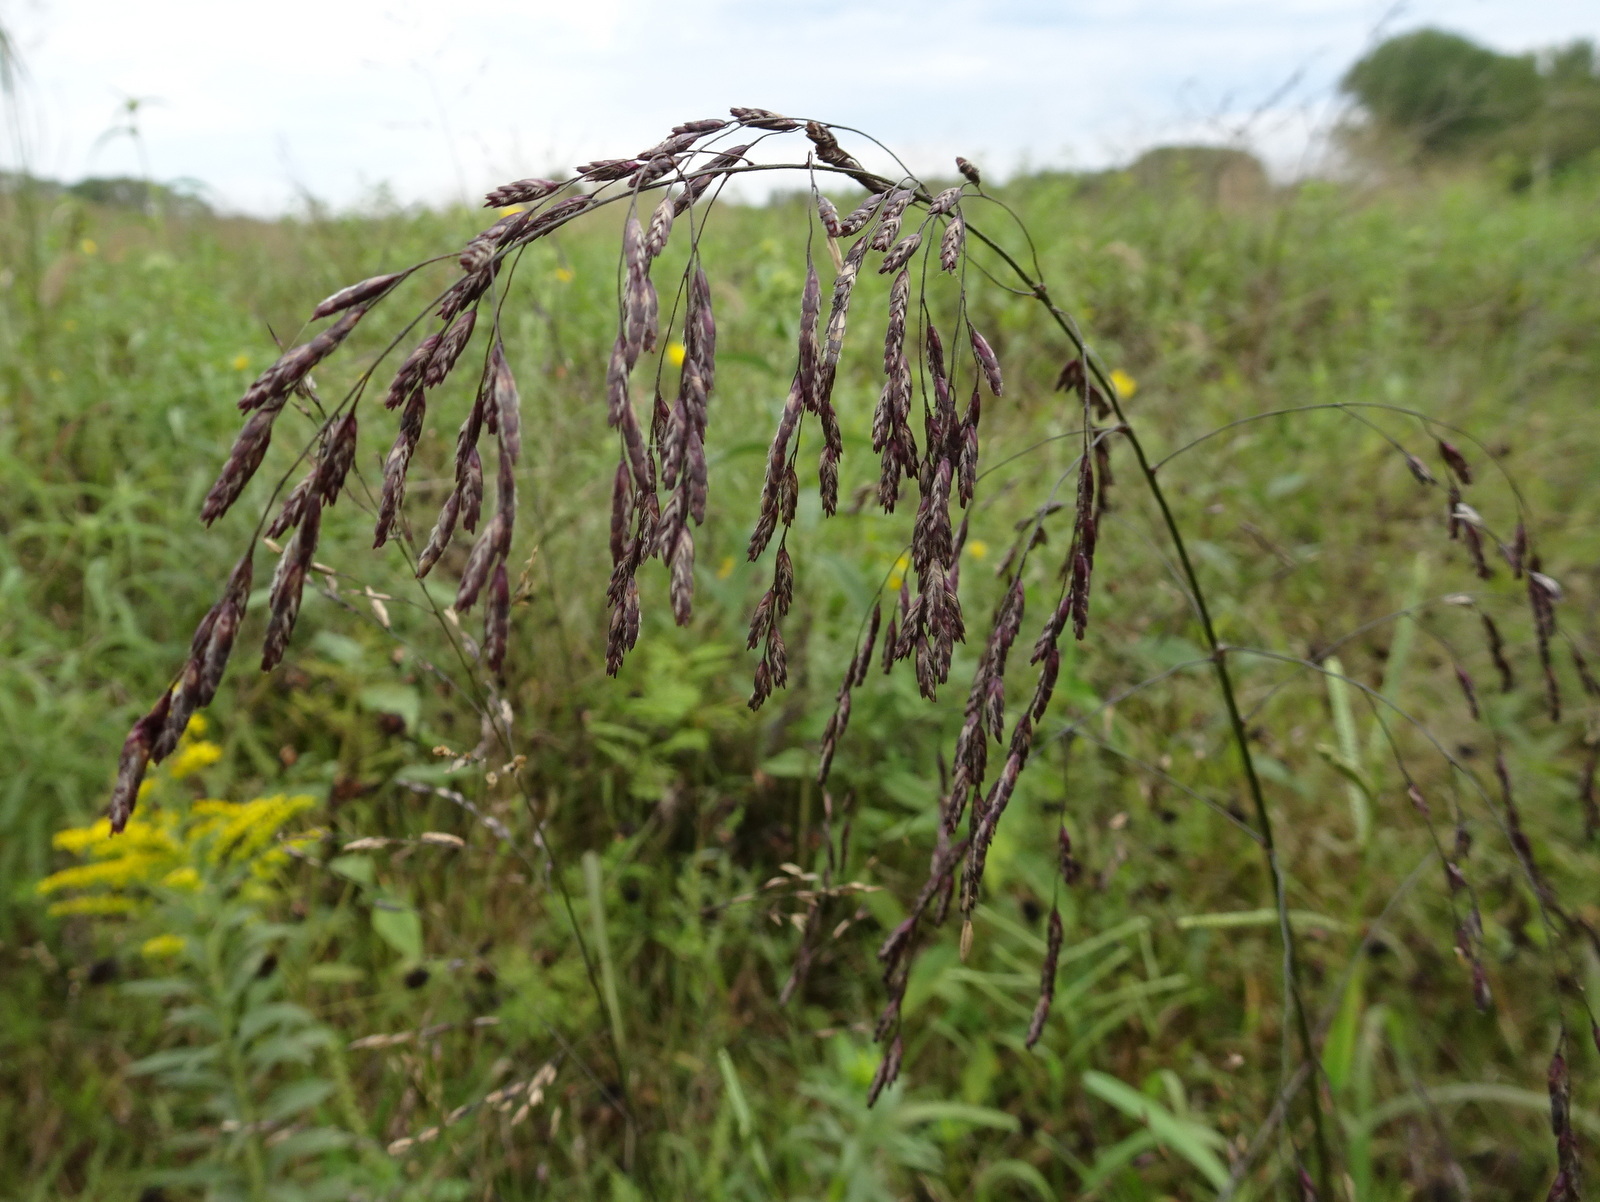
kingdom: Plantae
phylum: Tracheophyta
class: Liliopsida
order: Poales
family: Poaceae
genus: Tridens
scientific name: Tridens flavus
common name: Purpletop
